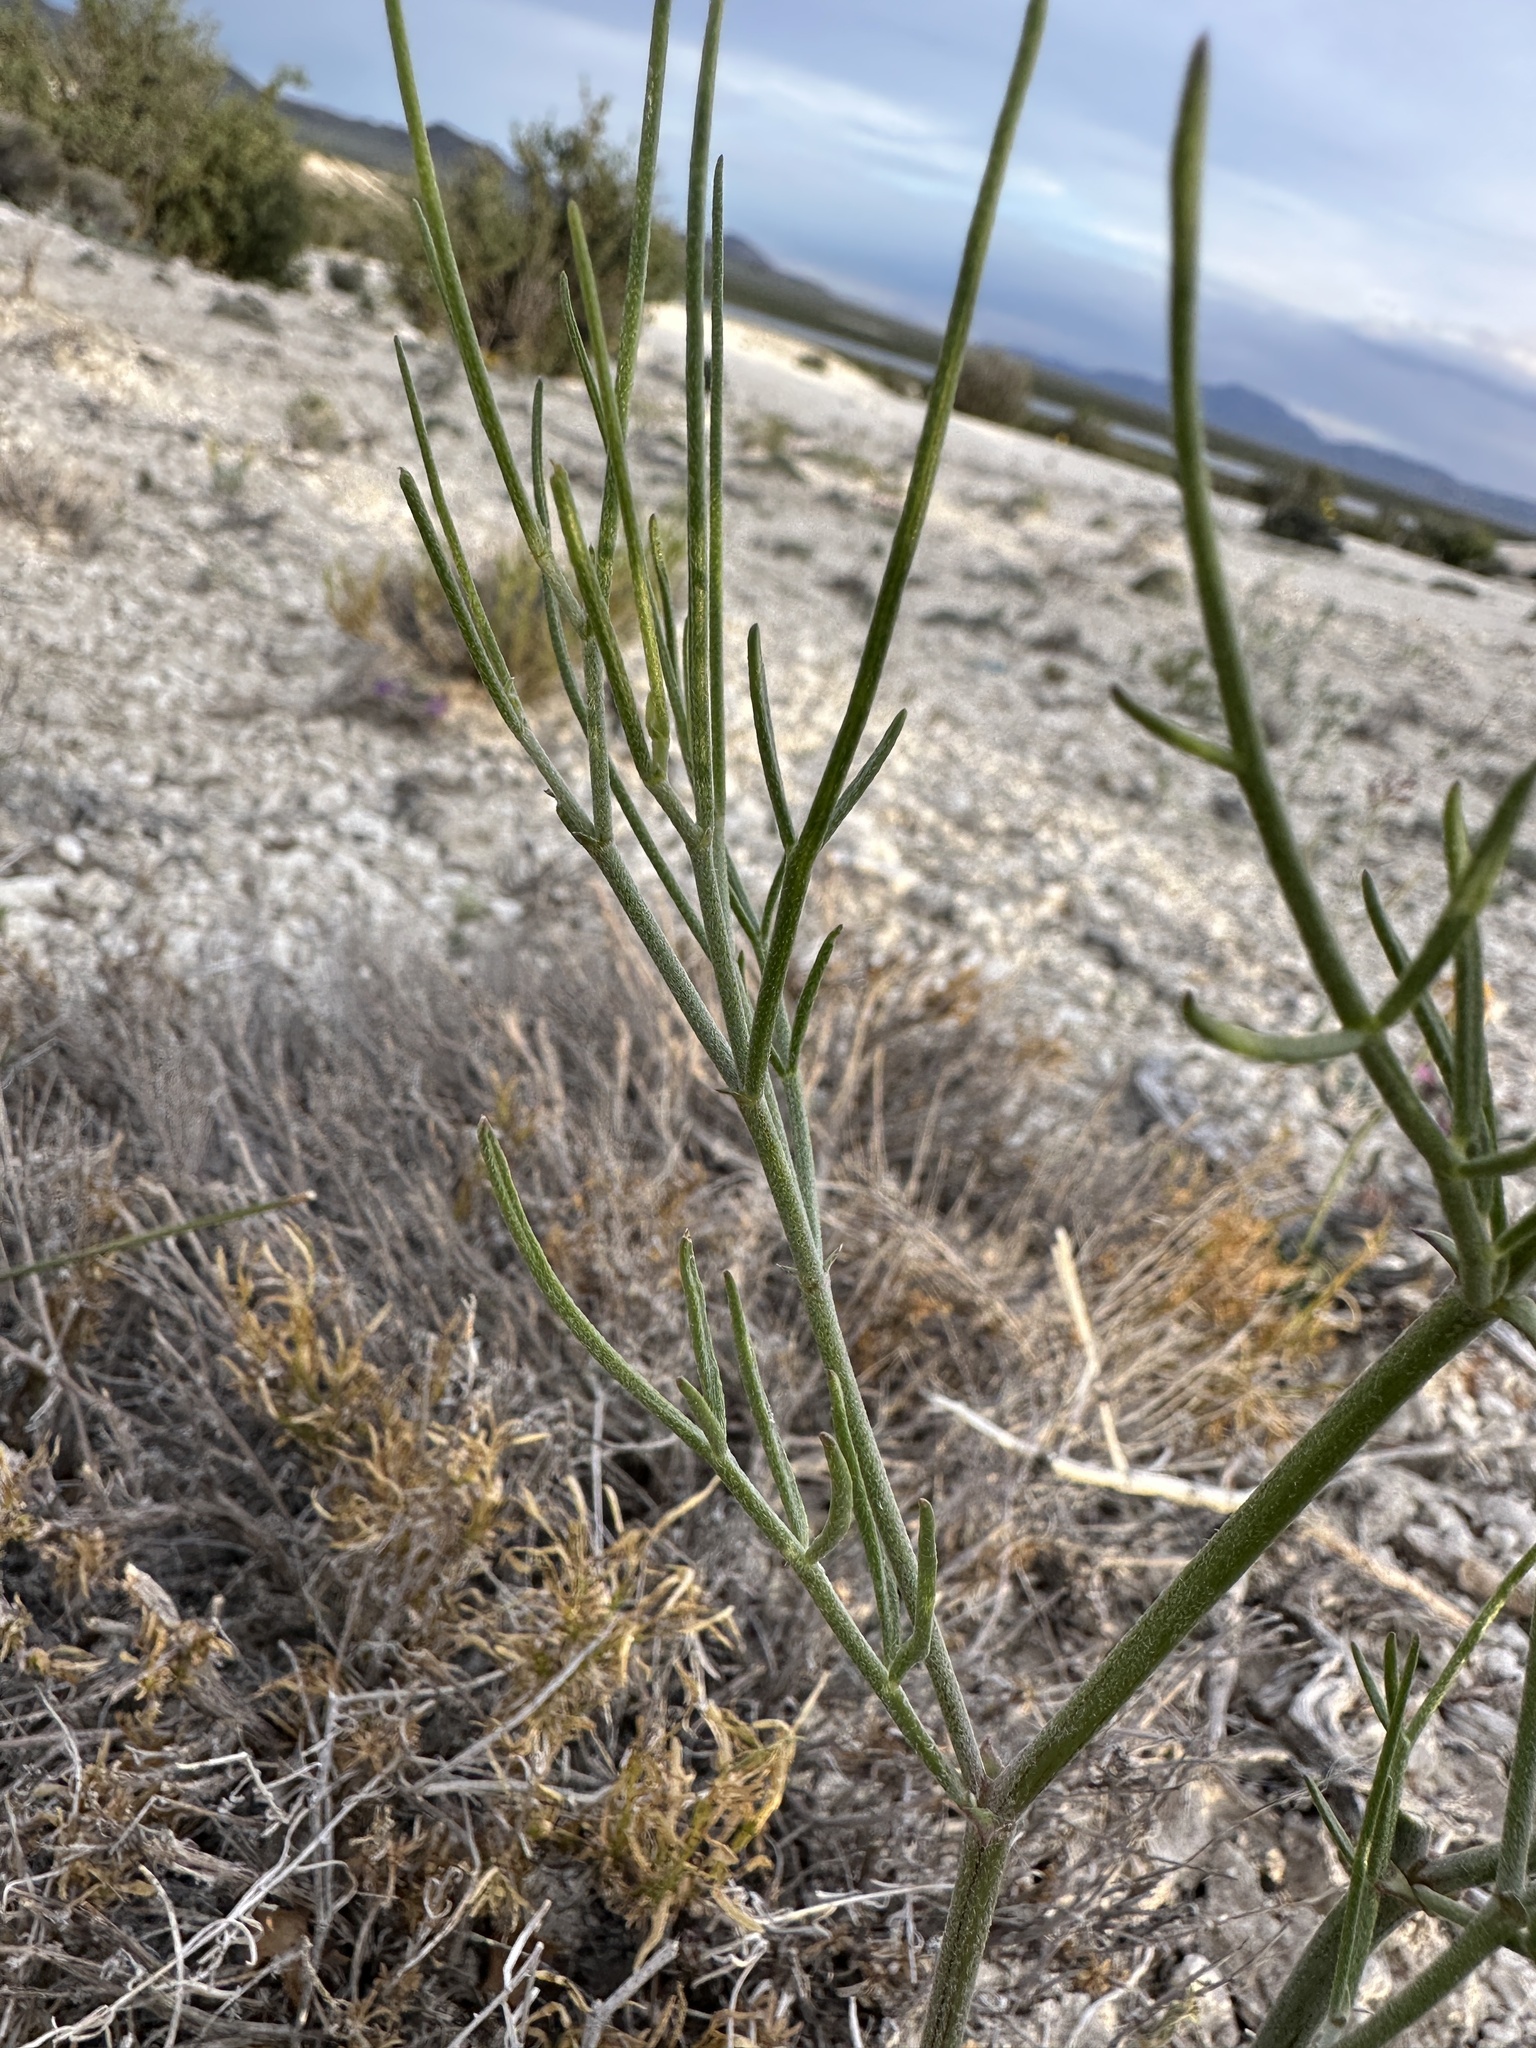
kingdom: Plantae
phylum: Tracheophyta
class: Magnoliopsida
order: Fabales
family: Fabaceae
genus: Astragalus
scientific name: Astragalus toanus
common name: Toano milk-vetch
